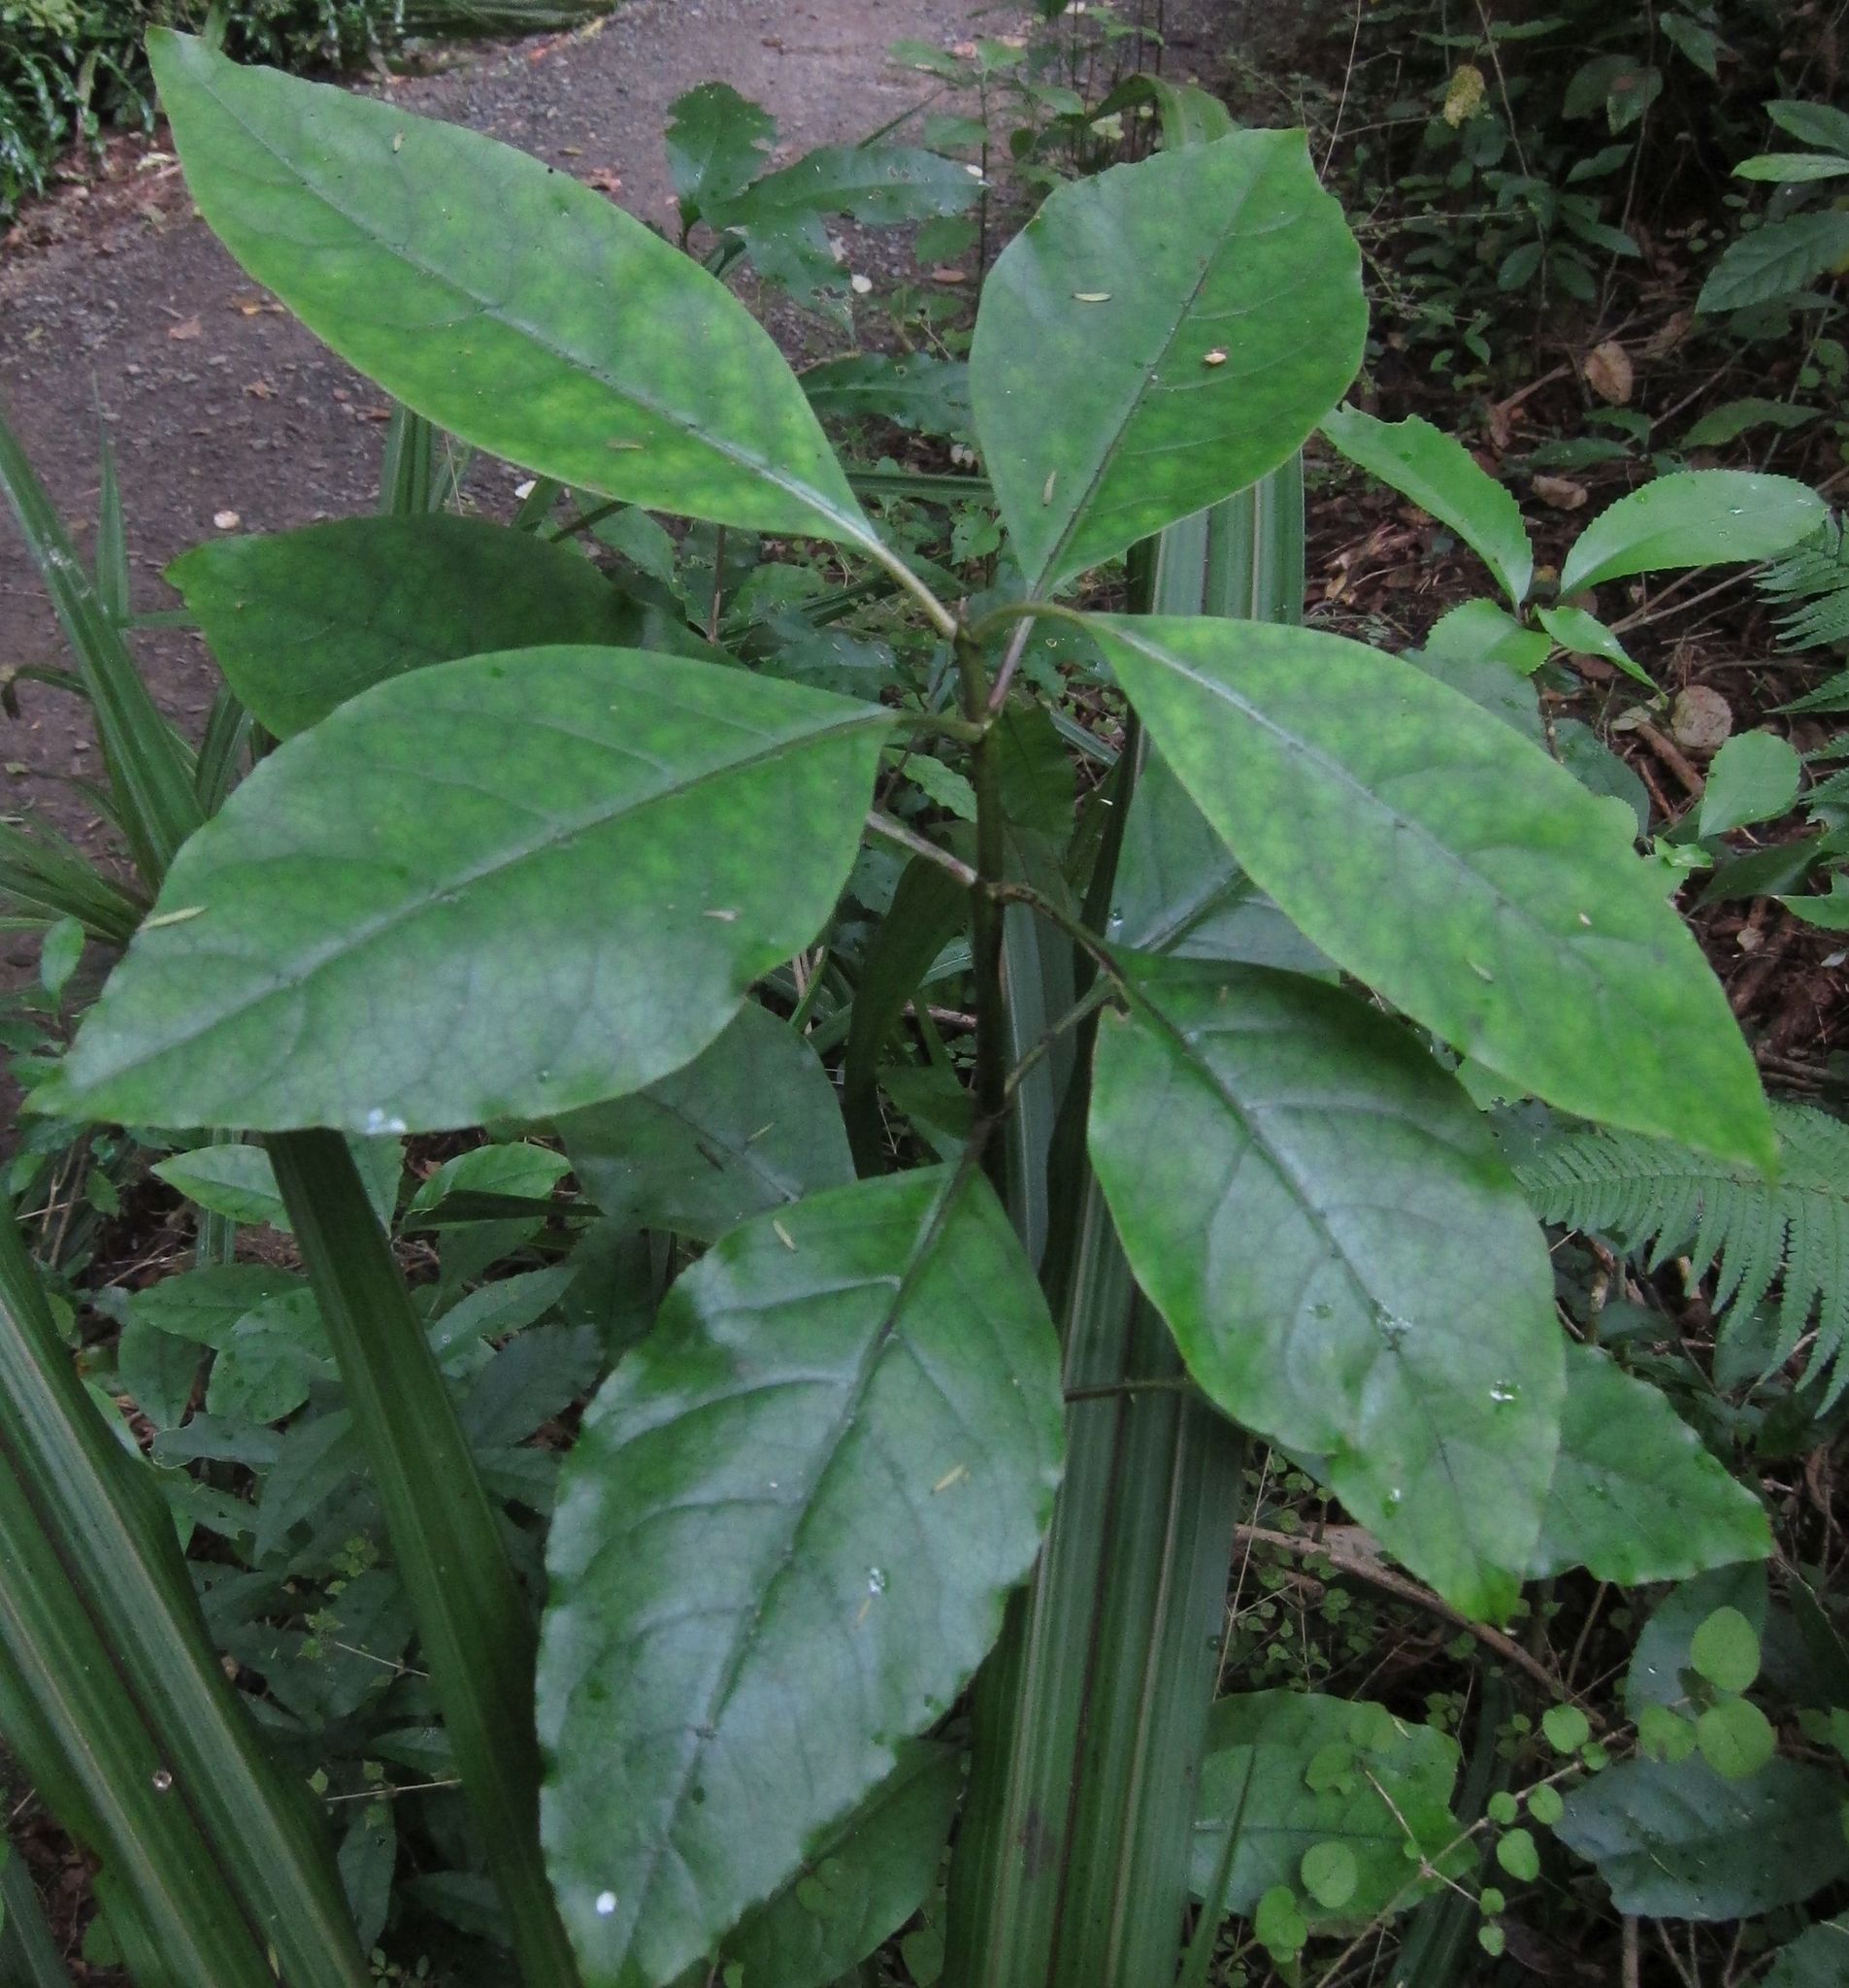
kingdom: Plantae
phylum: Tracheophyta
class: Magnoliopsida
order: Gentianales
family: Rubiaceae
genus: Coprosma
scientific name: Coprosma autumnalis
